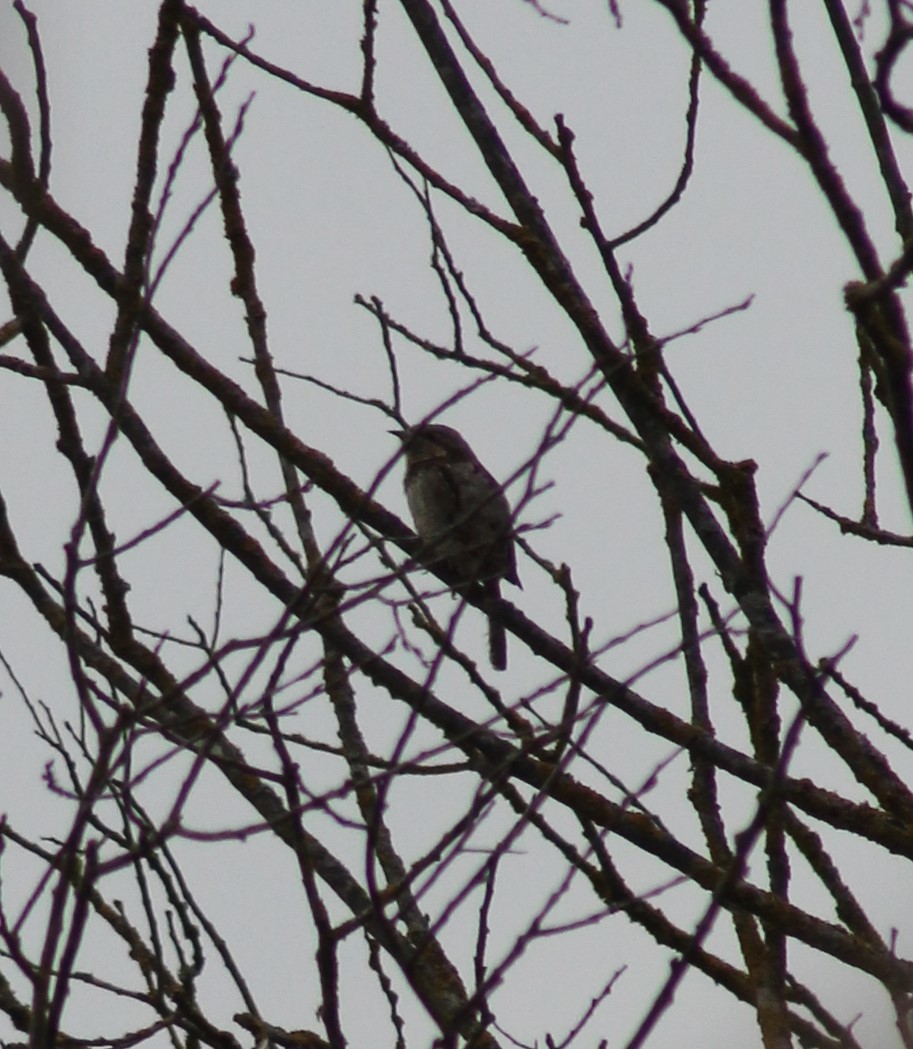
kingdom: Animalia
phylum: Chordata
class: Aves
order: Piciformes
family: Picidae
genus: Jynx
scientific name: Jynx torquilla
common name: Eurasian wryneck
